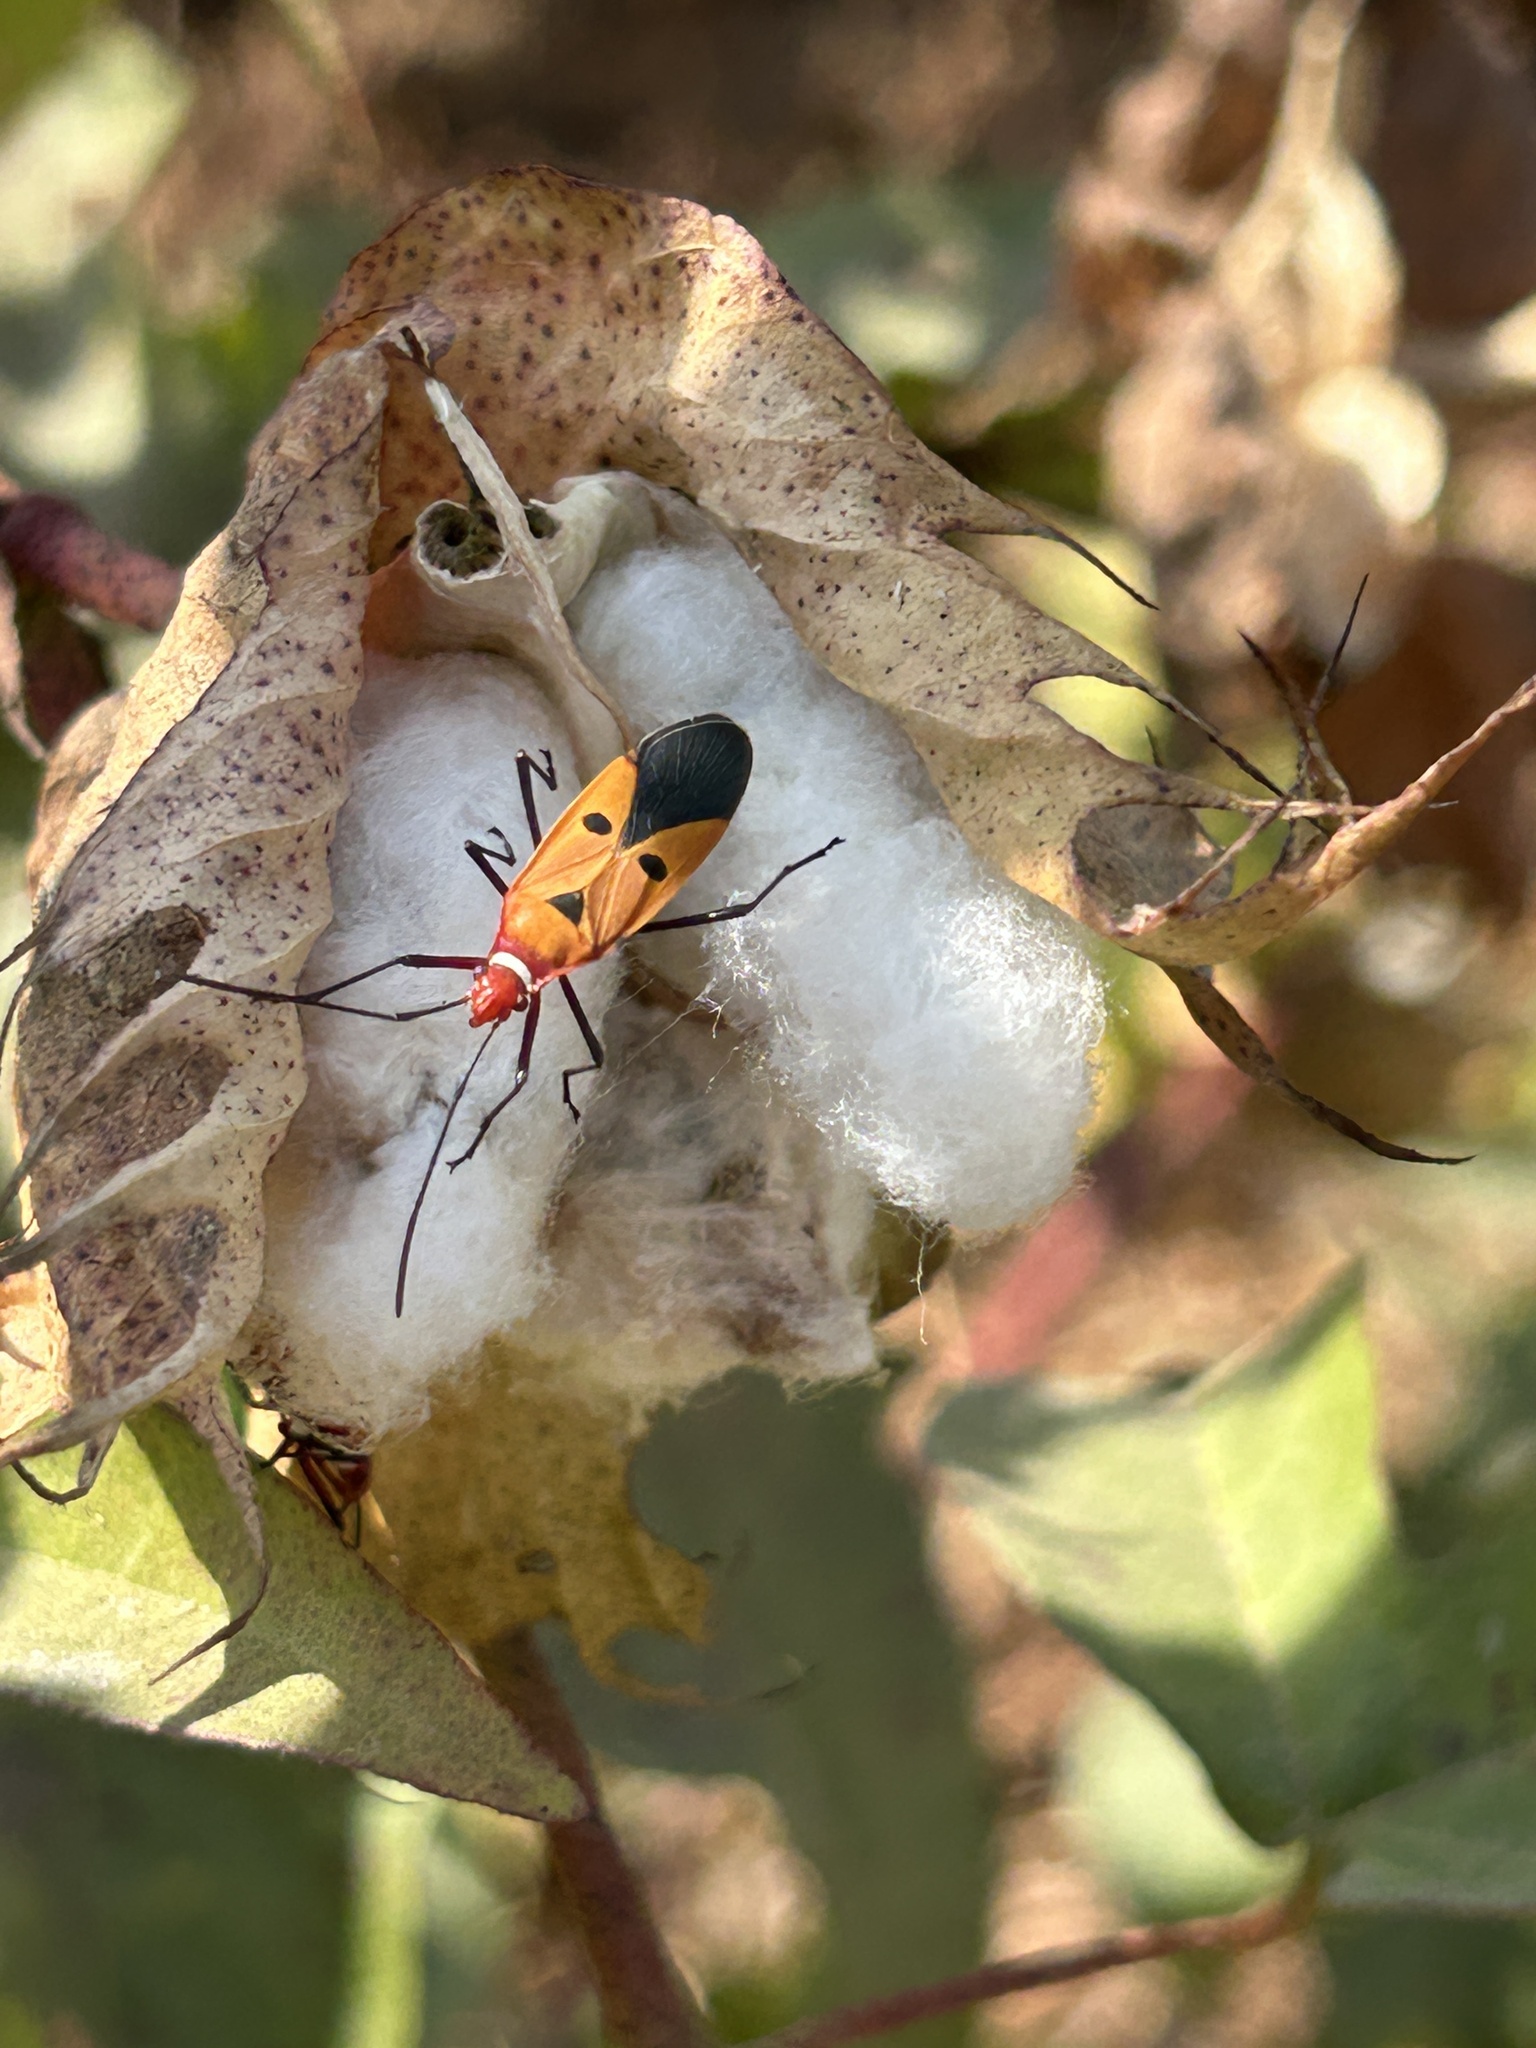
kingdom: Animalia
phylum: Arthropoda
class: Insecta
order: Hemiptera
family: Pyrrhocoridae
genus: Dysdercus
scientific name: Dysdercus cingulatus
